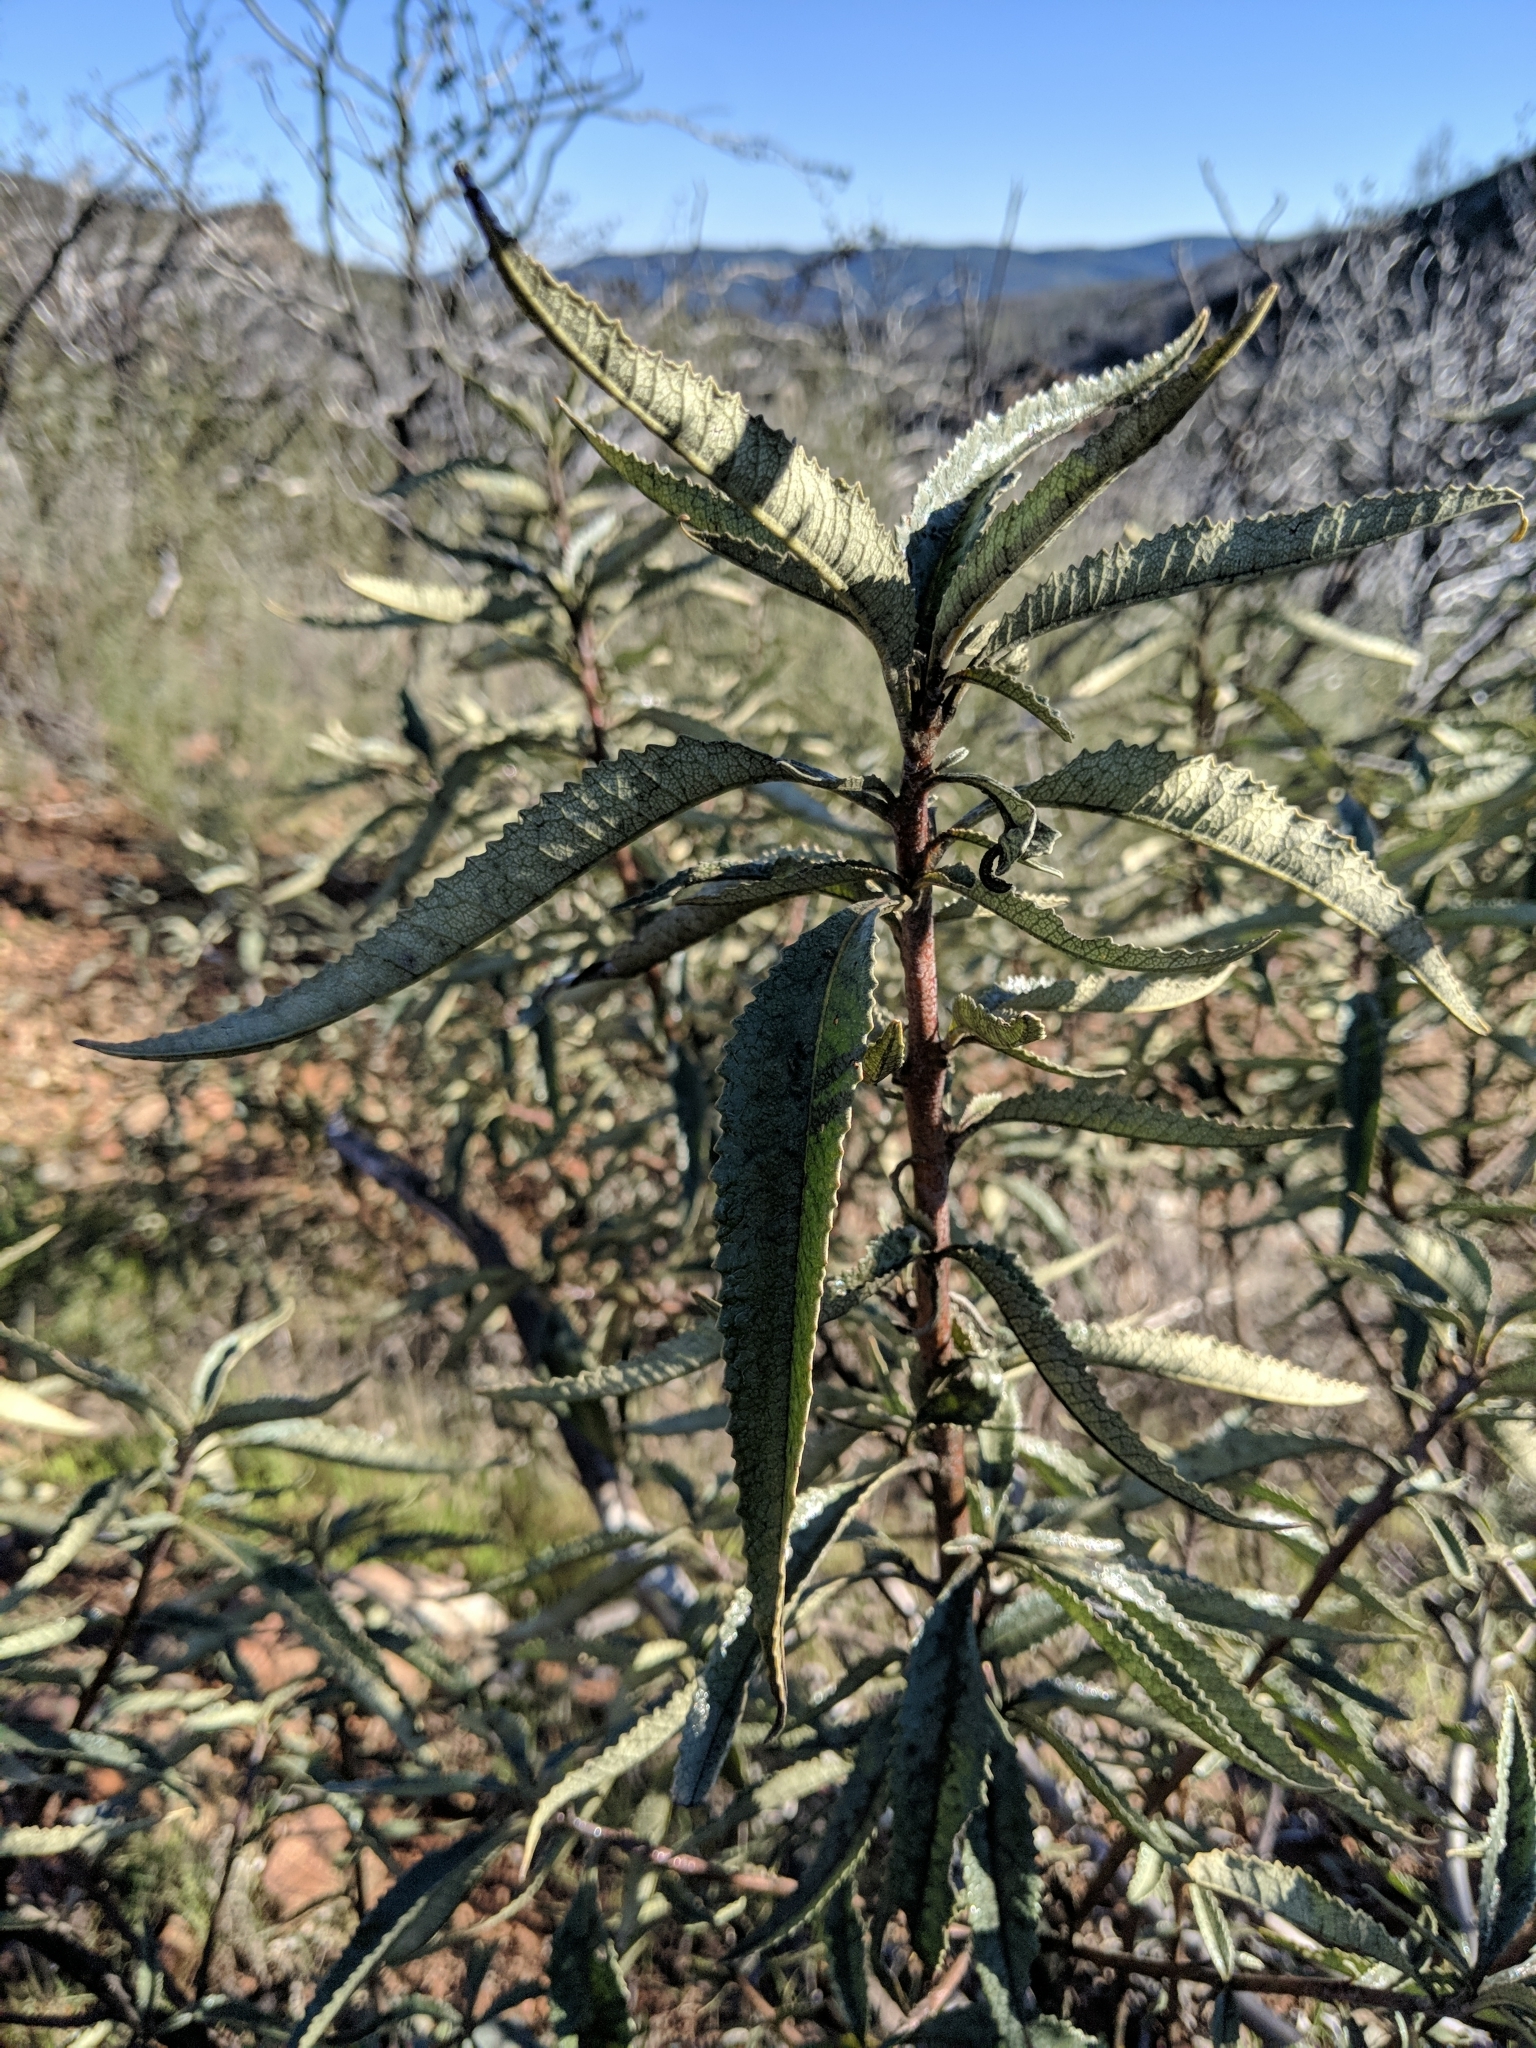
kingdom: Plantae
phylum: Tracheophyta
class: Magnoliopsida
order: Boraginales
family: Namaceae
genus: Eriodictyon
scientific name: Eriodictyon californicum
